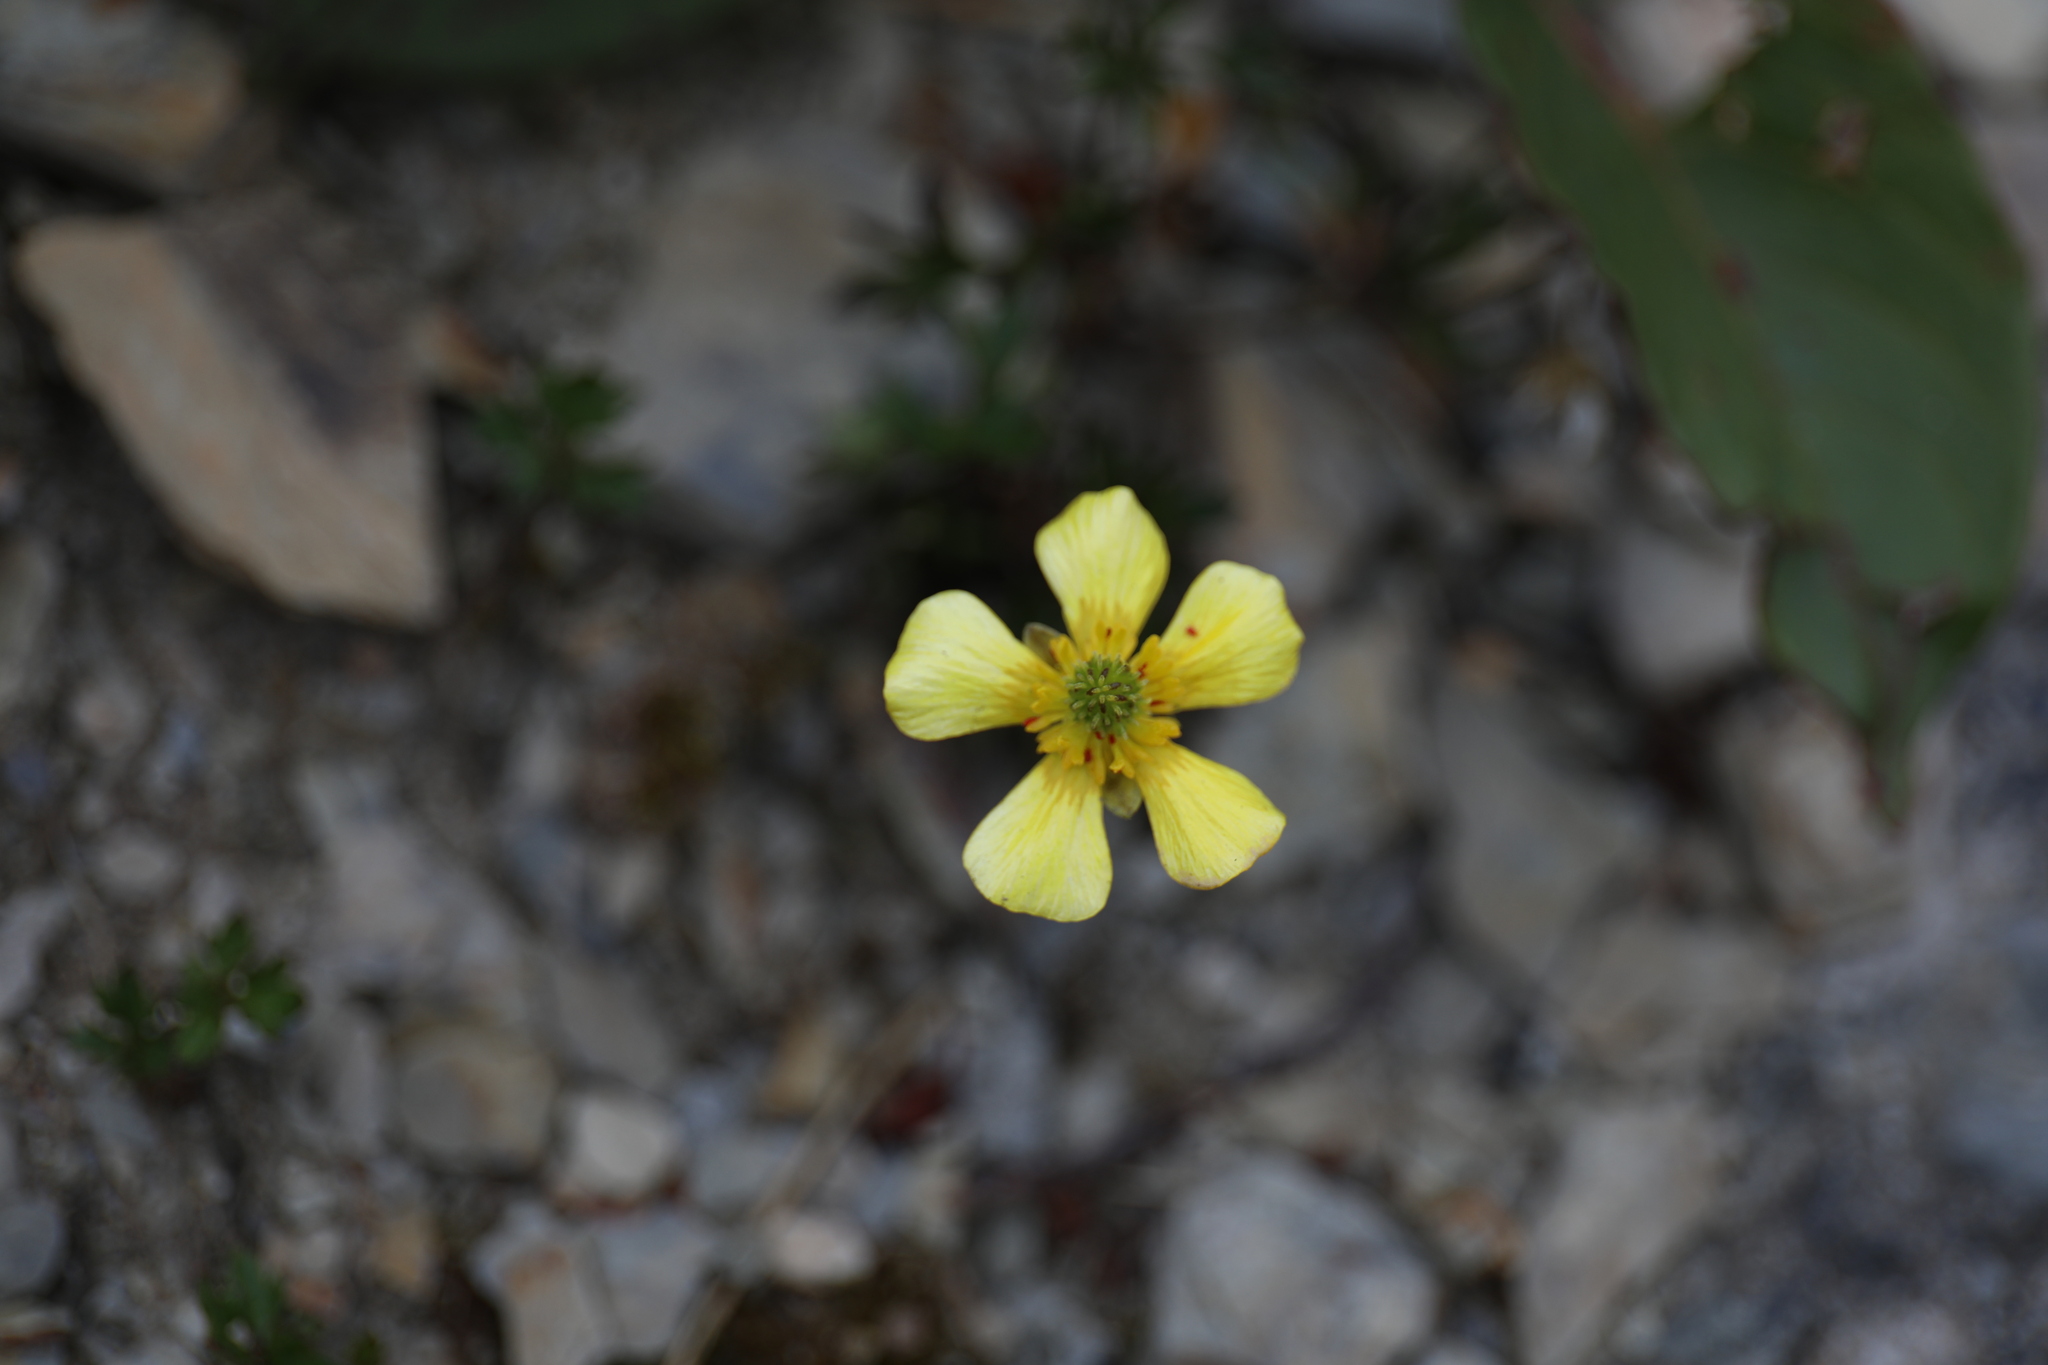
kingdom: Plantae
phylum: Tracheophyta
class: Magnoliopsida
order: Ranunculales
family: Ranunculaceae
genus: Ranunculus
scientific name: Ranunculus formosa-montanus
